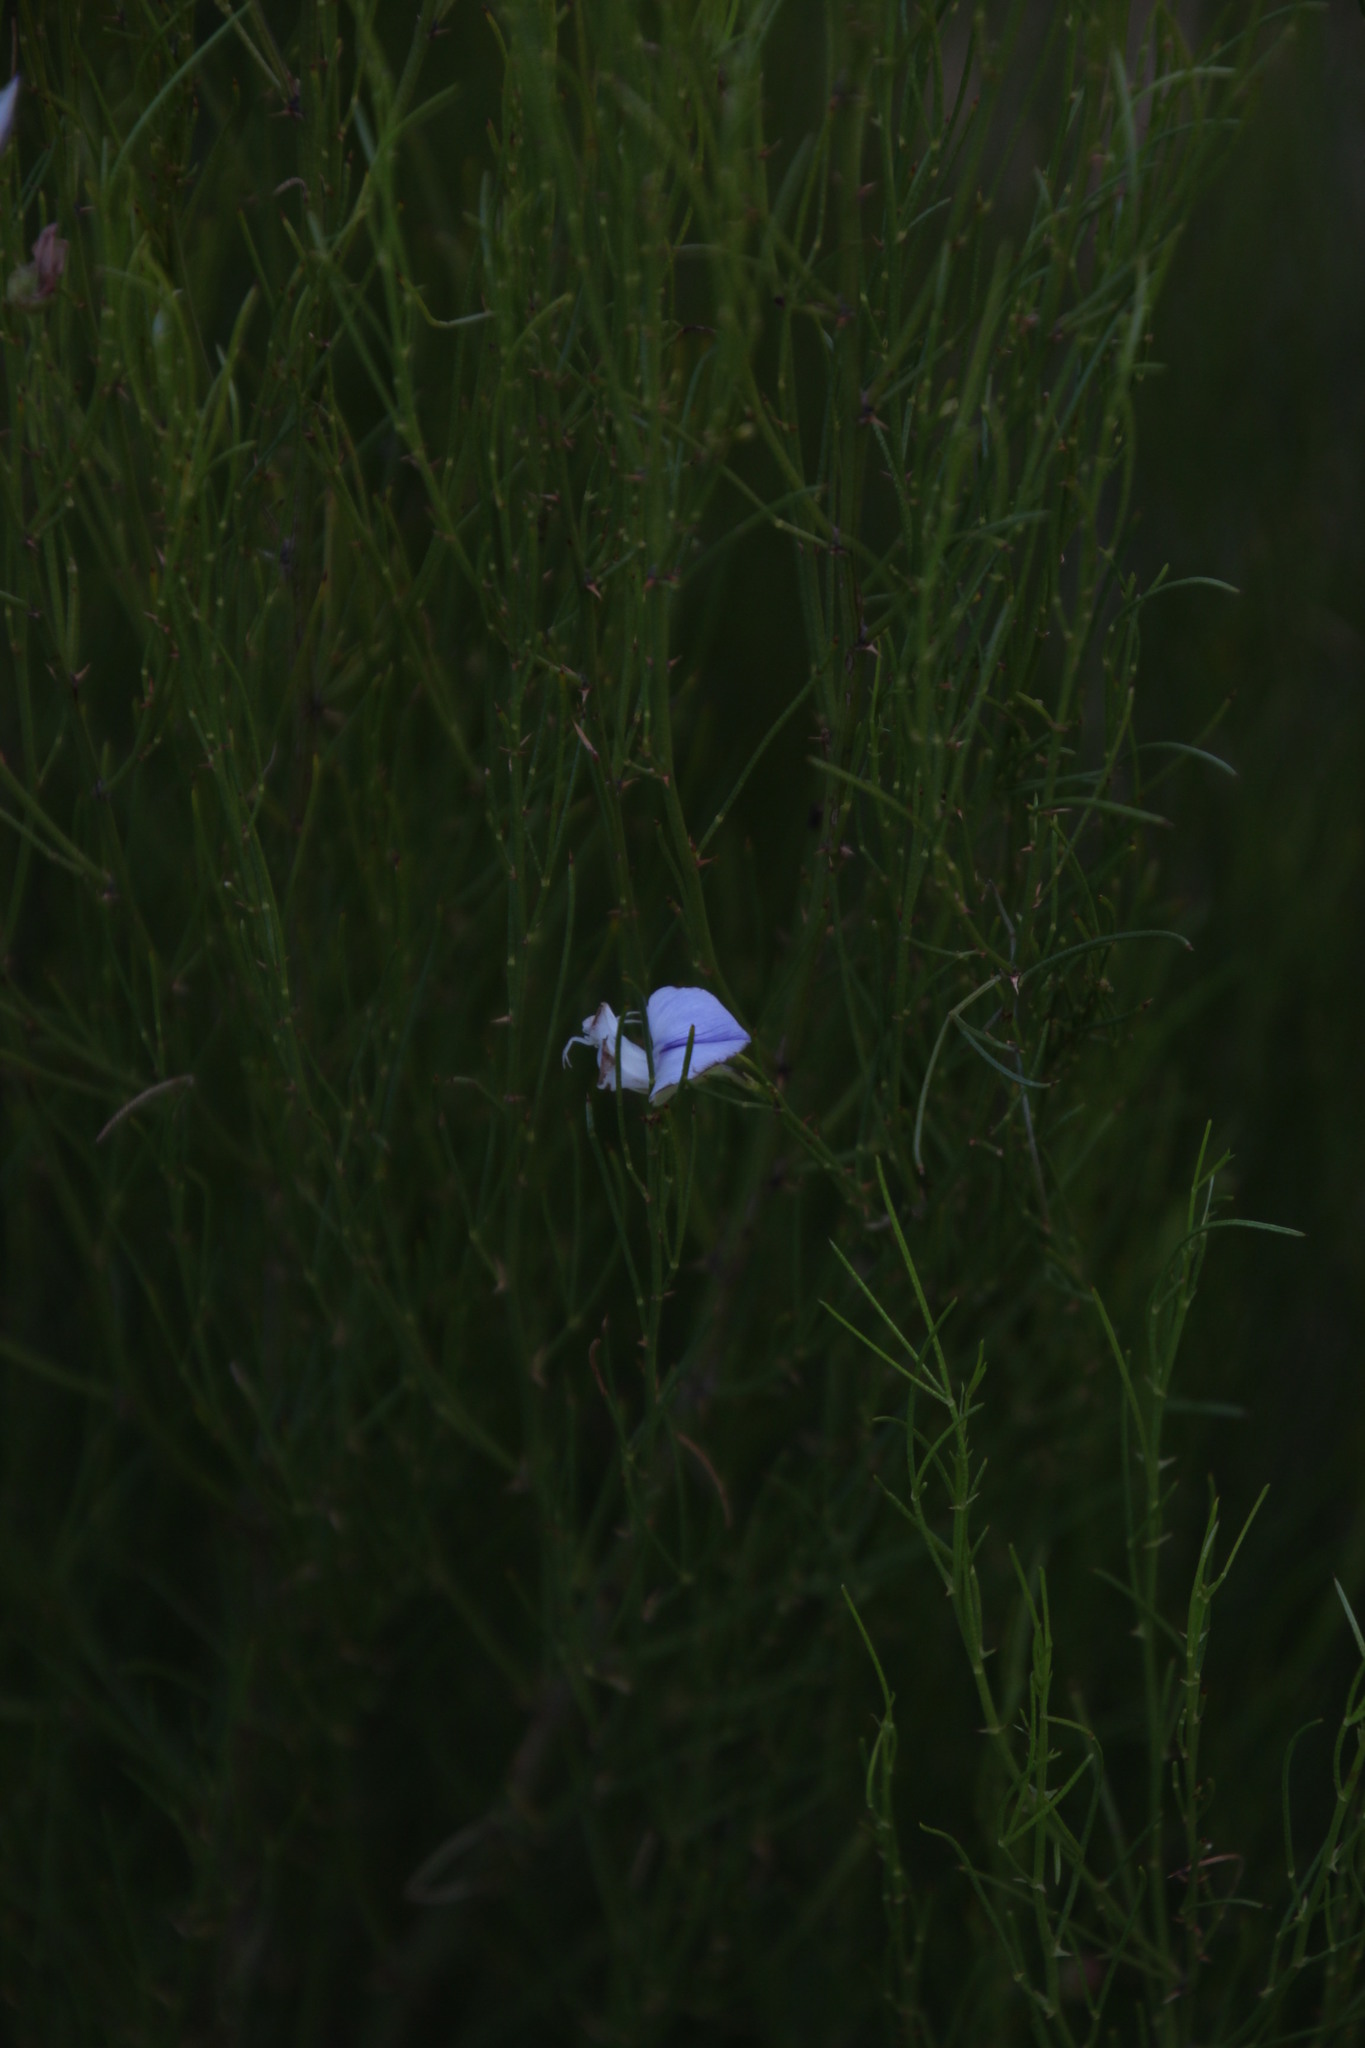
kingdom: Plantae
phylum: Tracheophyta
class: Magnoliopsida
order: Fabales
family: Fabaceae
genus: Psoralea
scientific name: Psoralea
